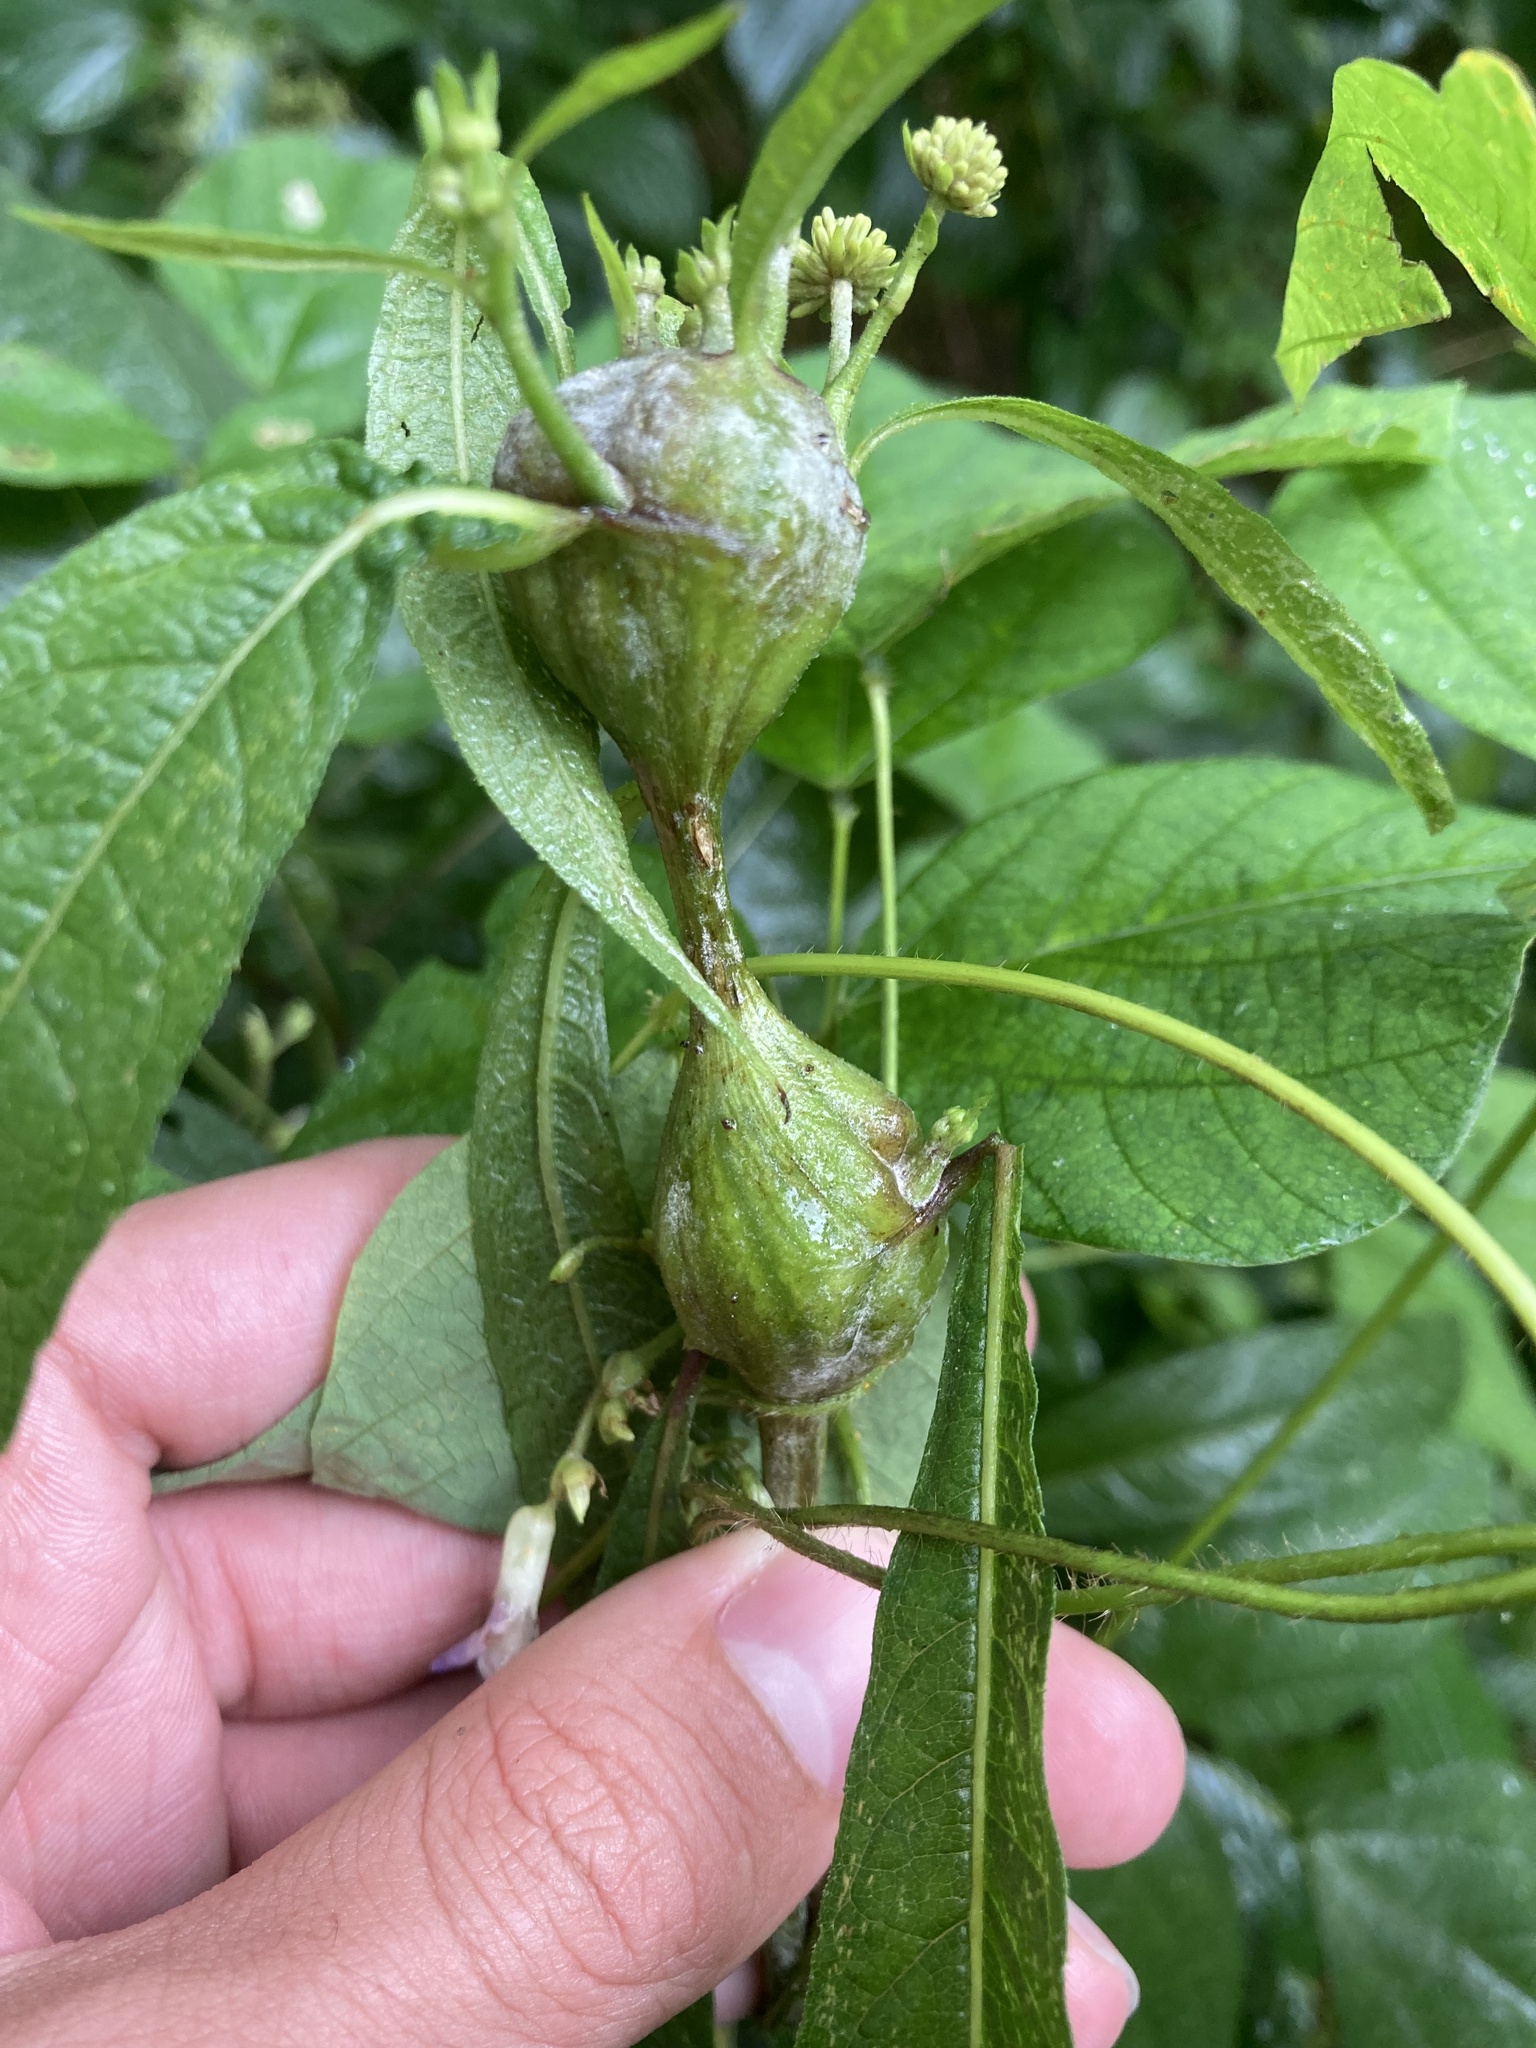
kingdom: Animalia
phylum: Arthropoda
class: Insecta
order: Diptera
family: Cecidomyiidae
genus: Neolasioptera
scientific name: Neolasioptera verbesinae
